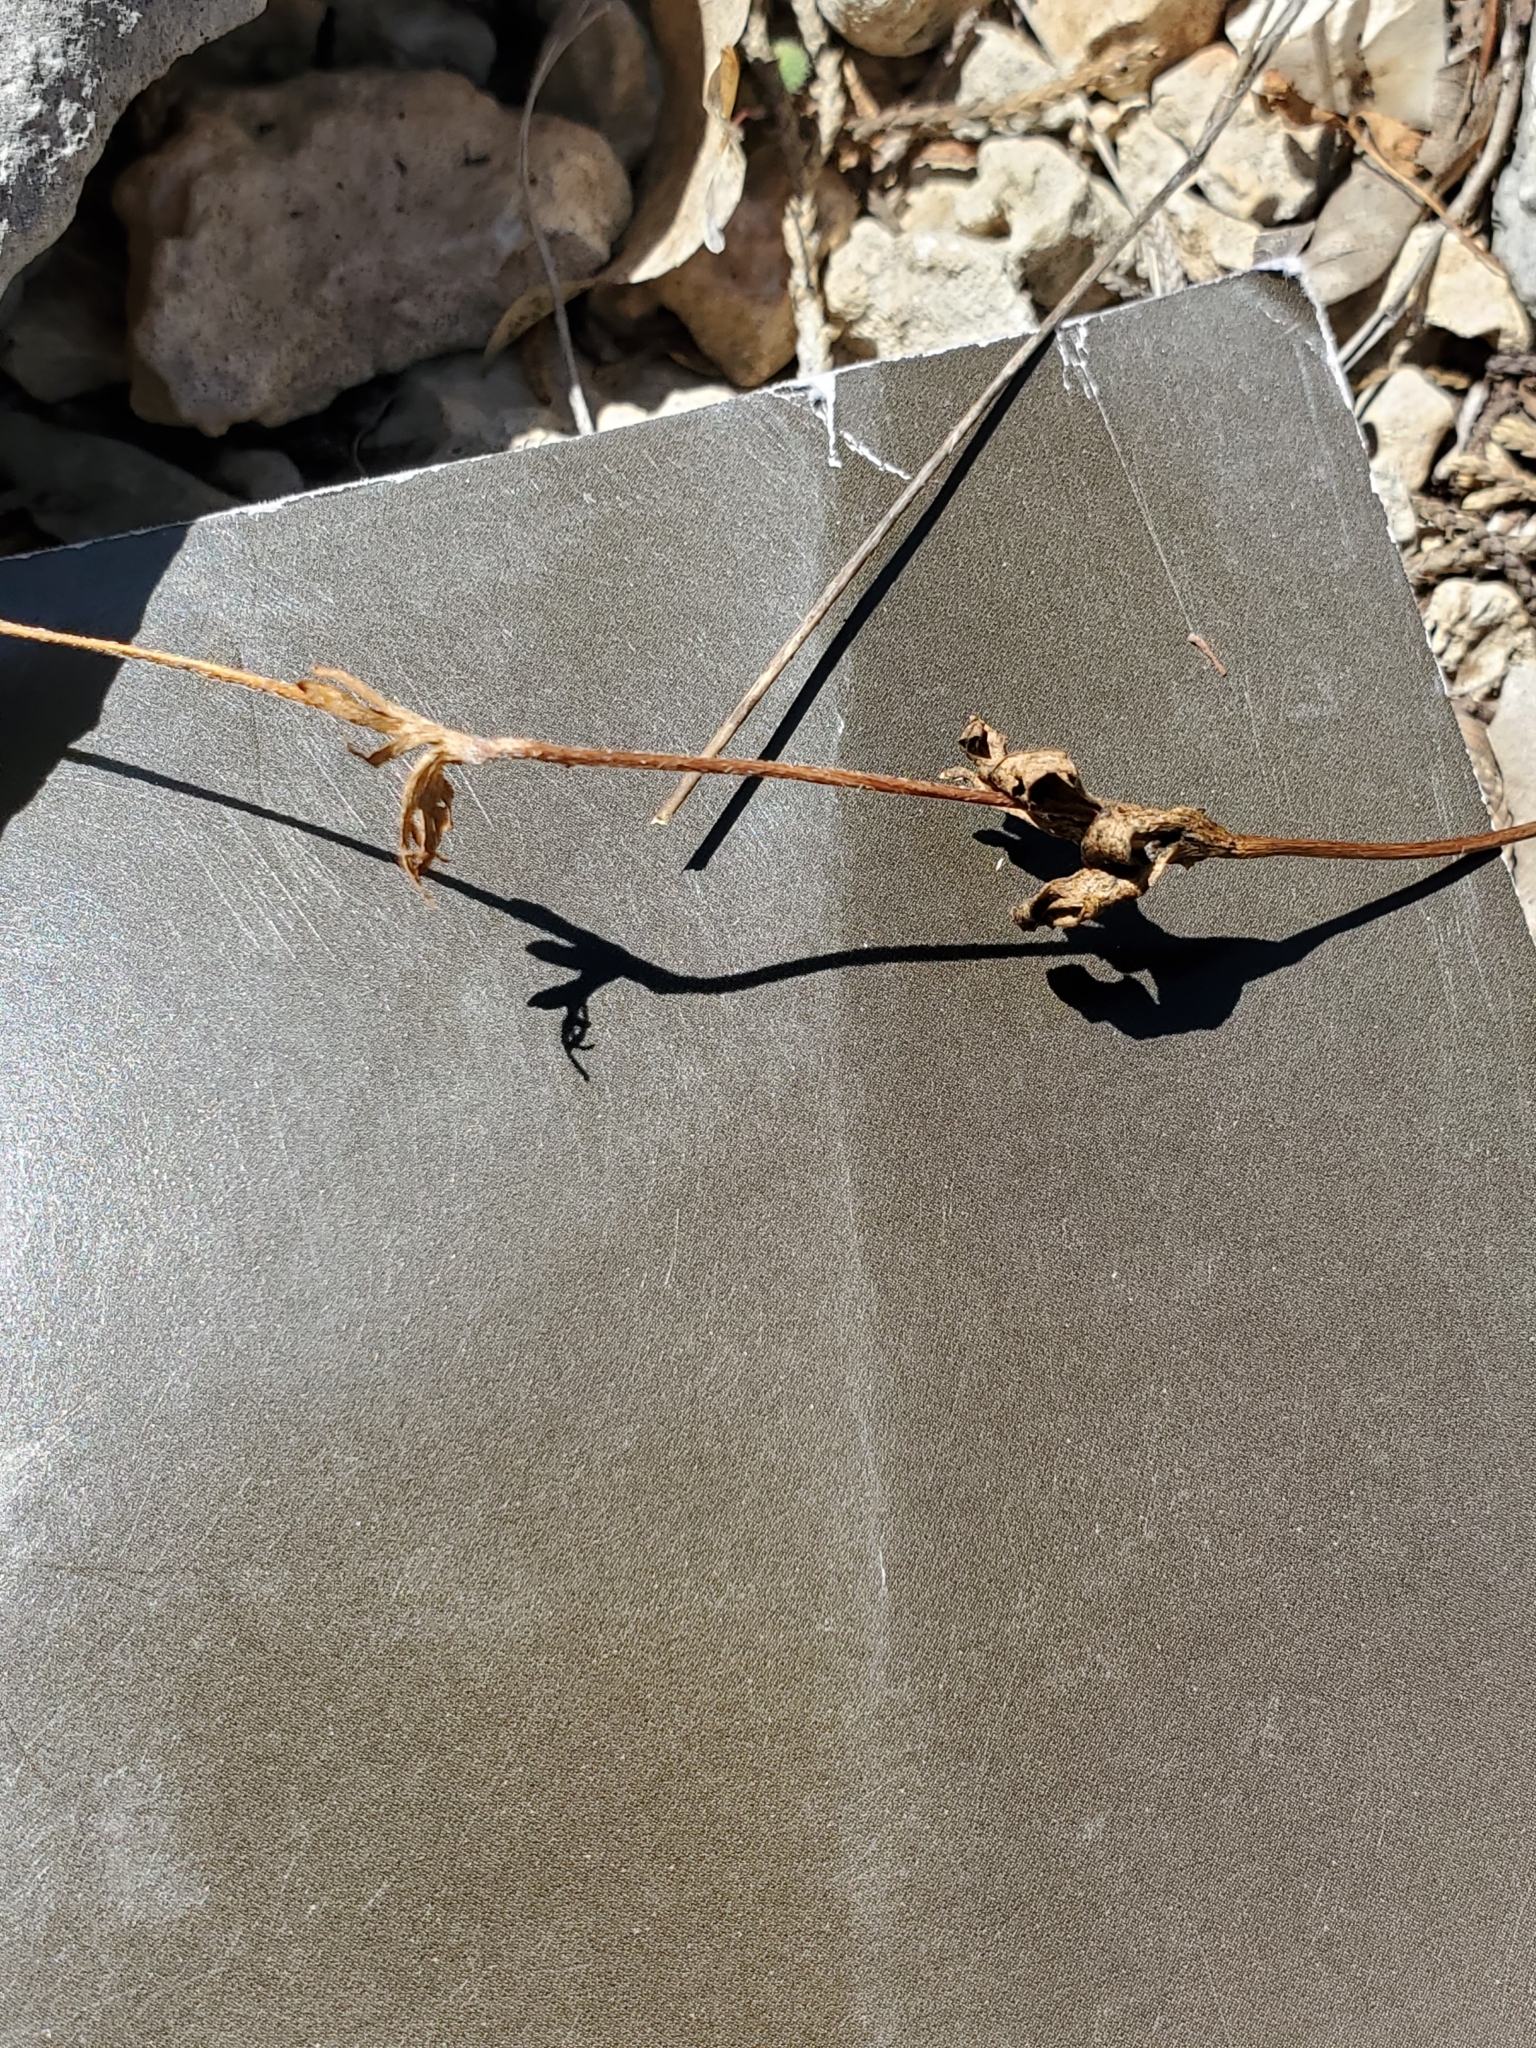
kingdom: Plantae
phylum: Tracheophyta
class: Magnoliopsida
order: Ranunculales
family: Ranunculaceae
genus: Anemone
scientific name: Anemone edwardsiana
